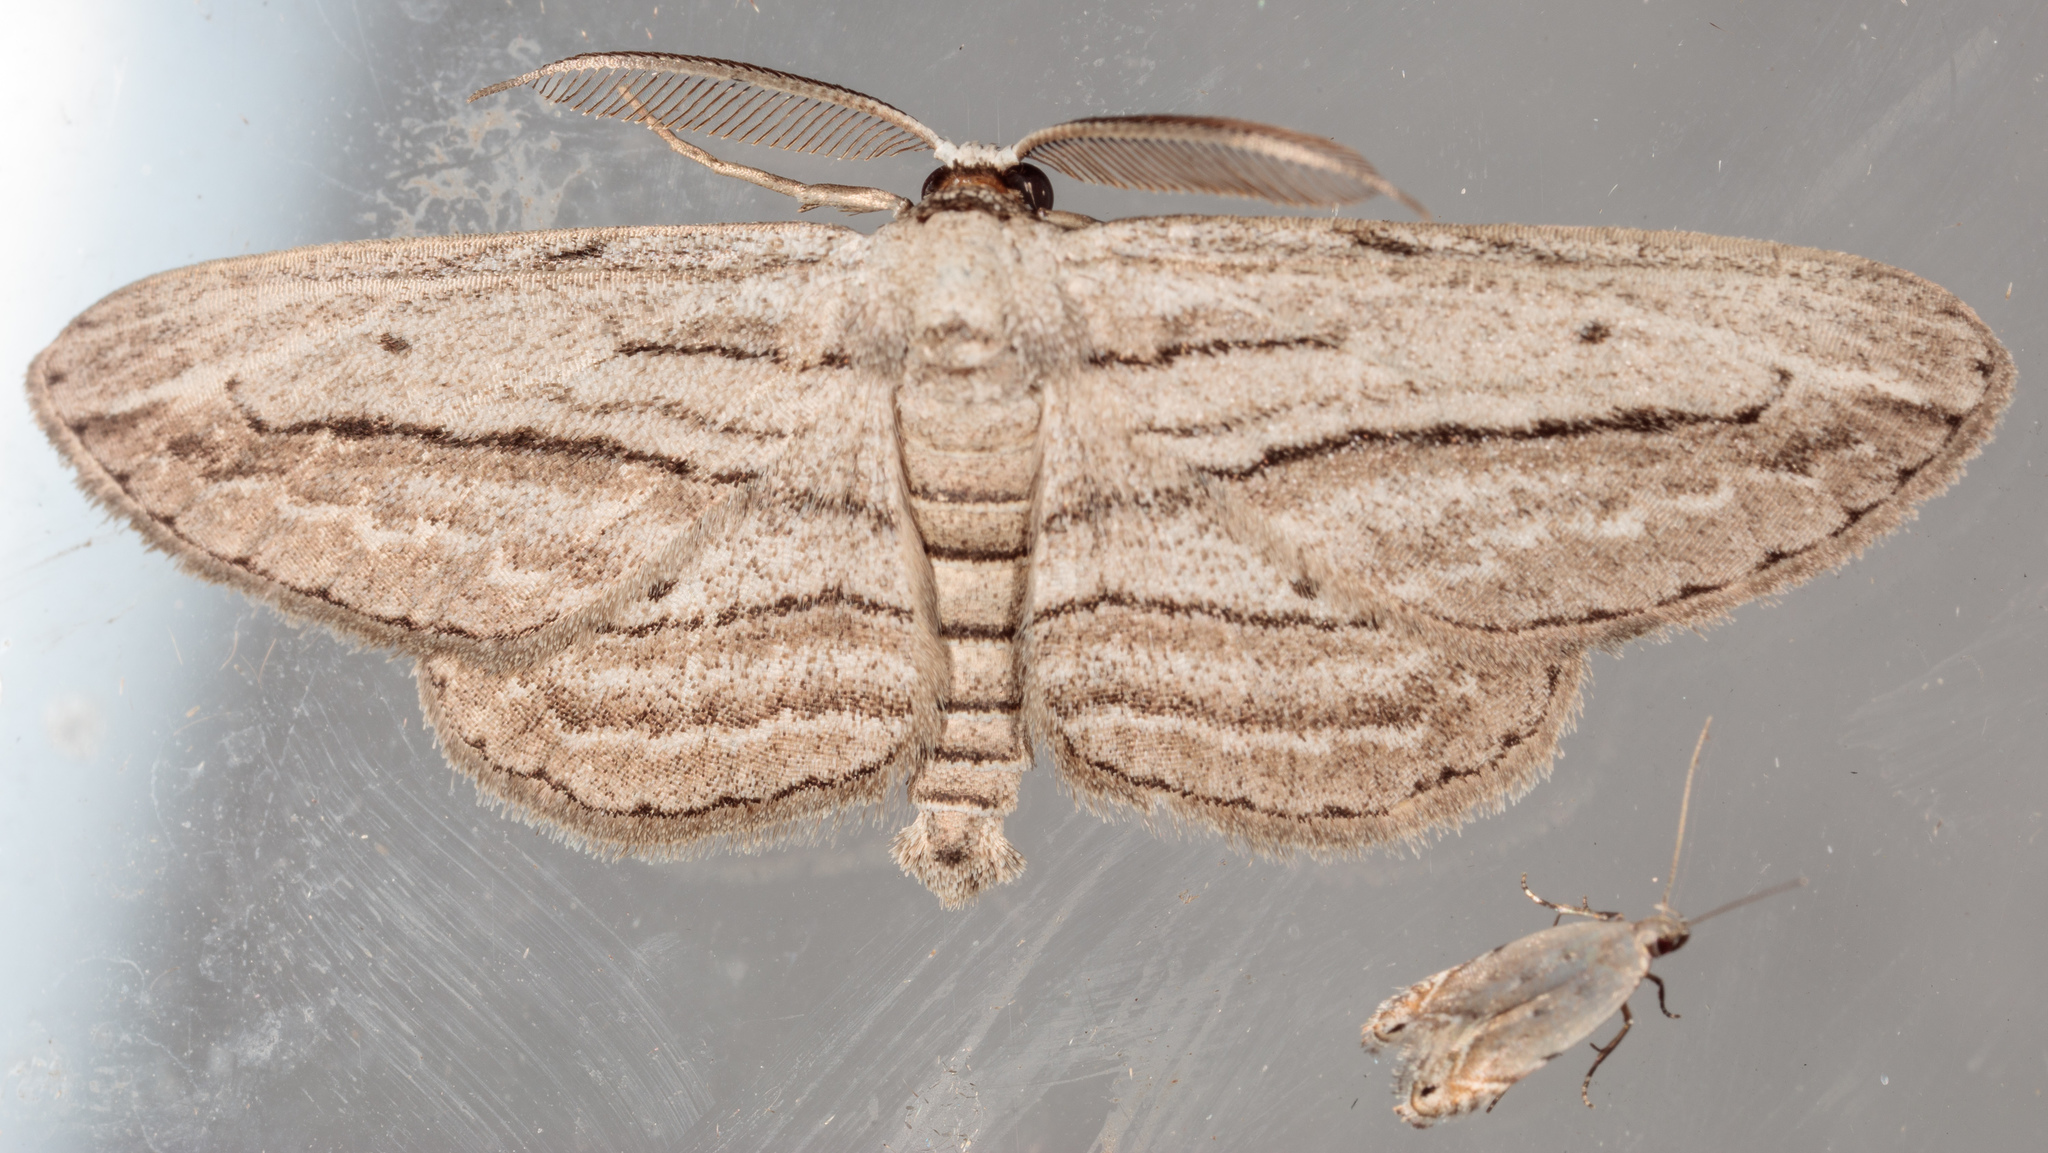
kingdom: Animalia
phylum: Arthropoda
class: Insecta
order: Lepidoptera
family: Geometridae
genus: Glena
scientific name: Glena quinquelinearia
